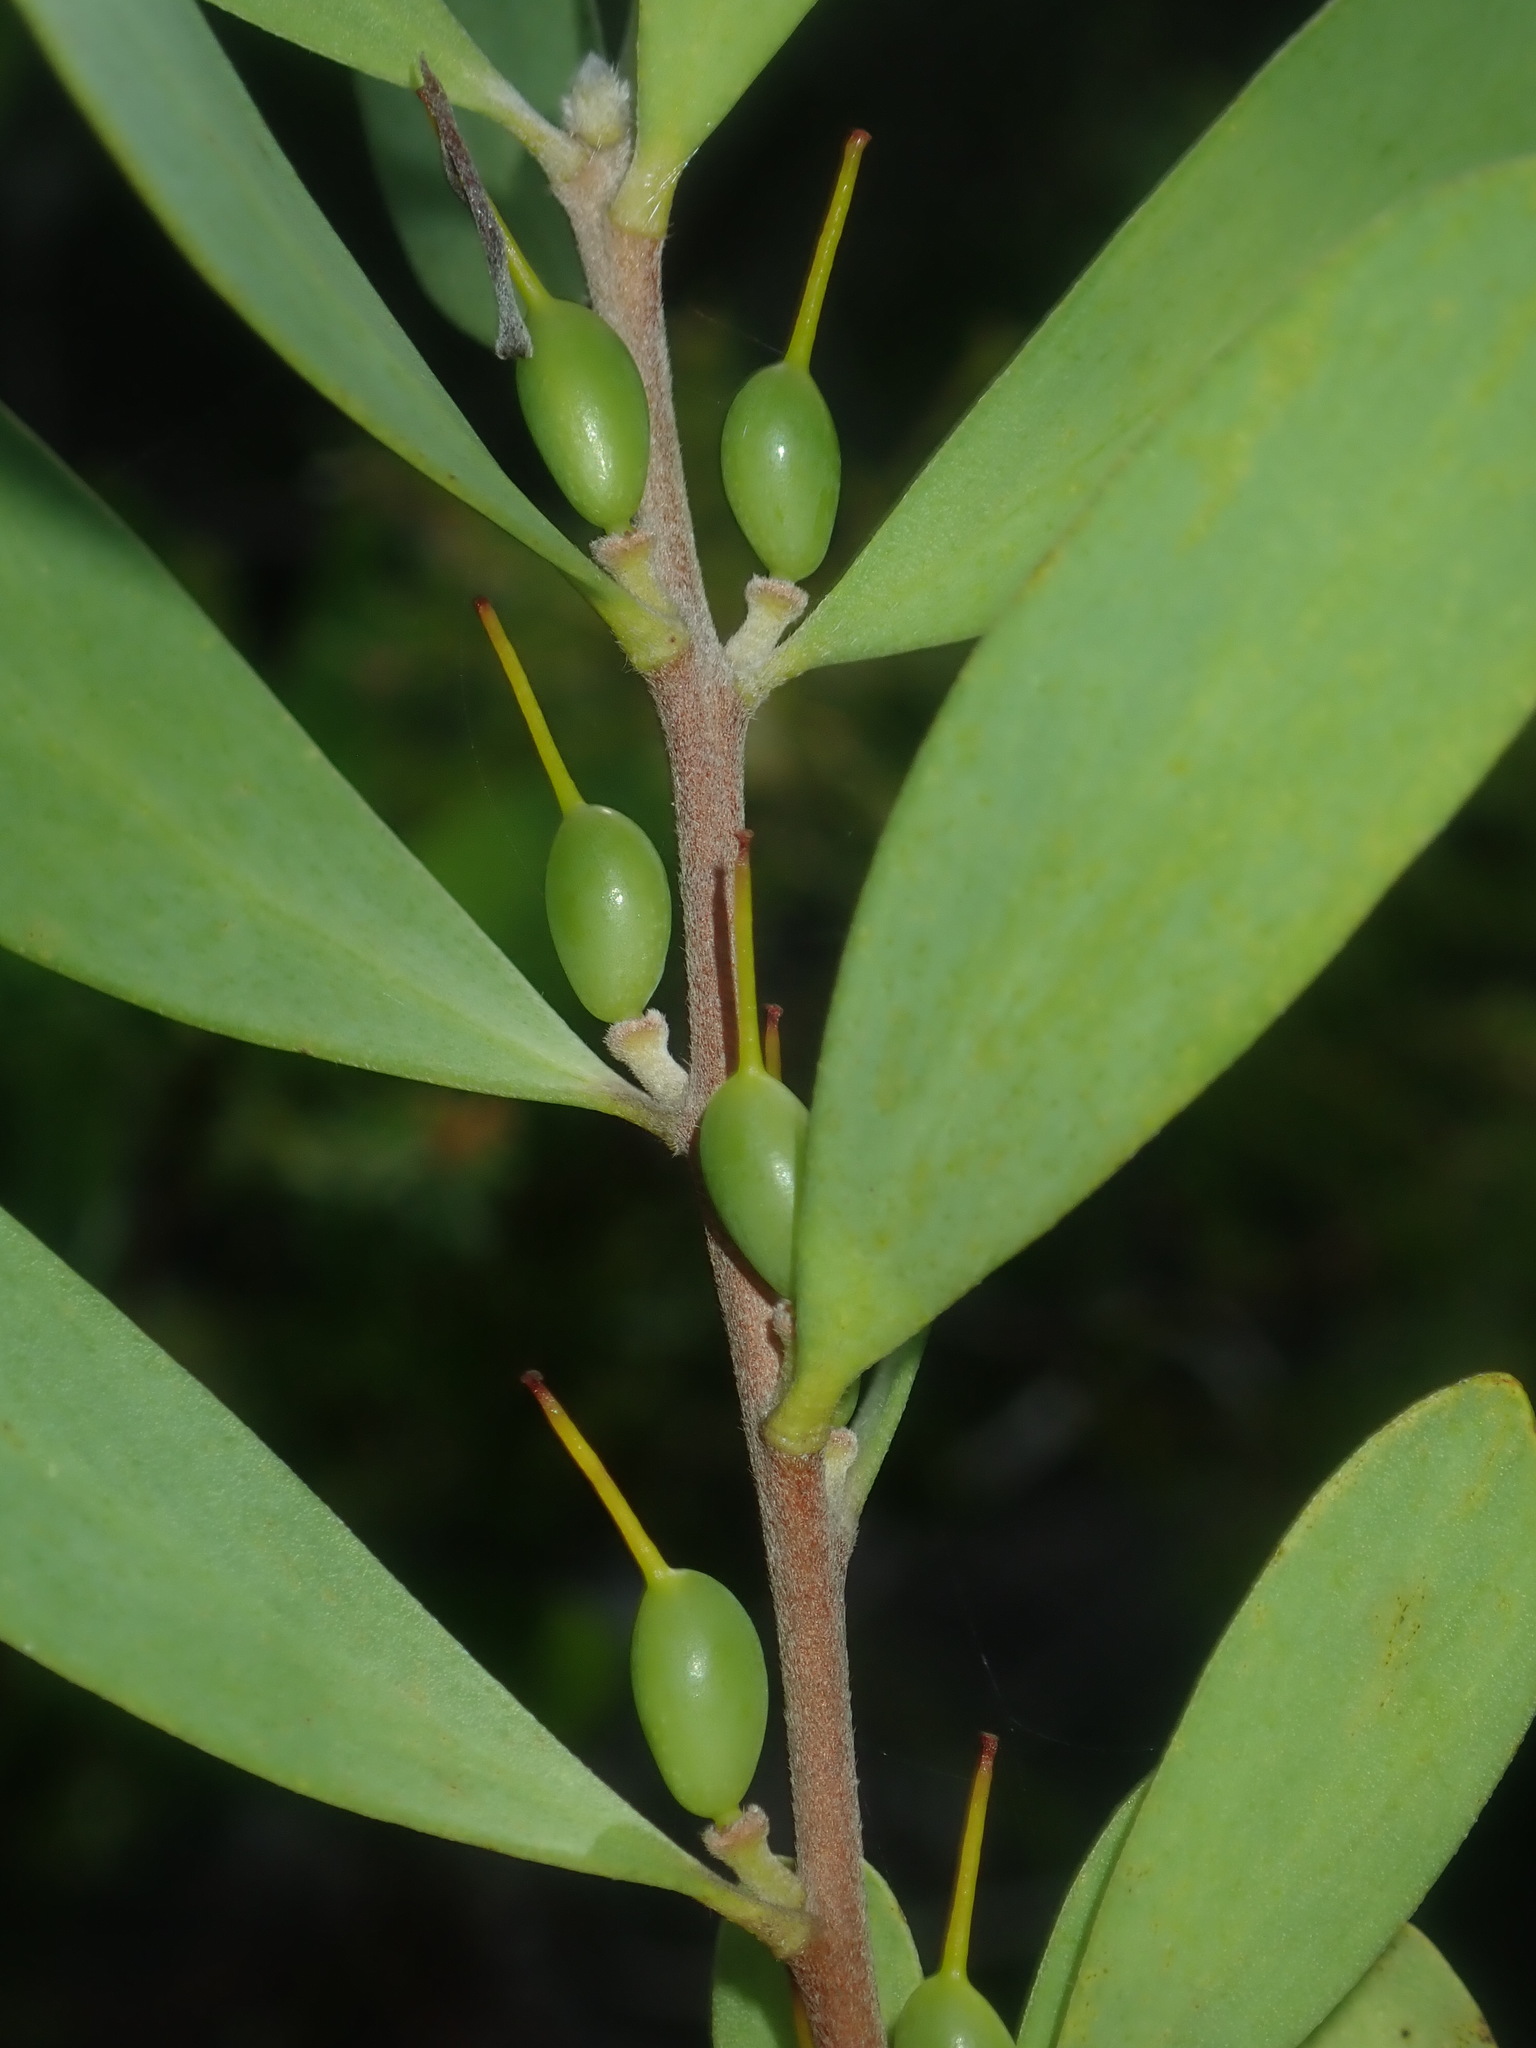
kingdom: Plantae
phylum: Tracheophyta
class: Magnoliopsida
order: Proteales
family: Proteaceae
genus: Persoonia
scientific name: Persoonia lanceolata
